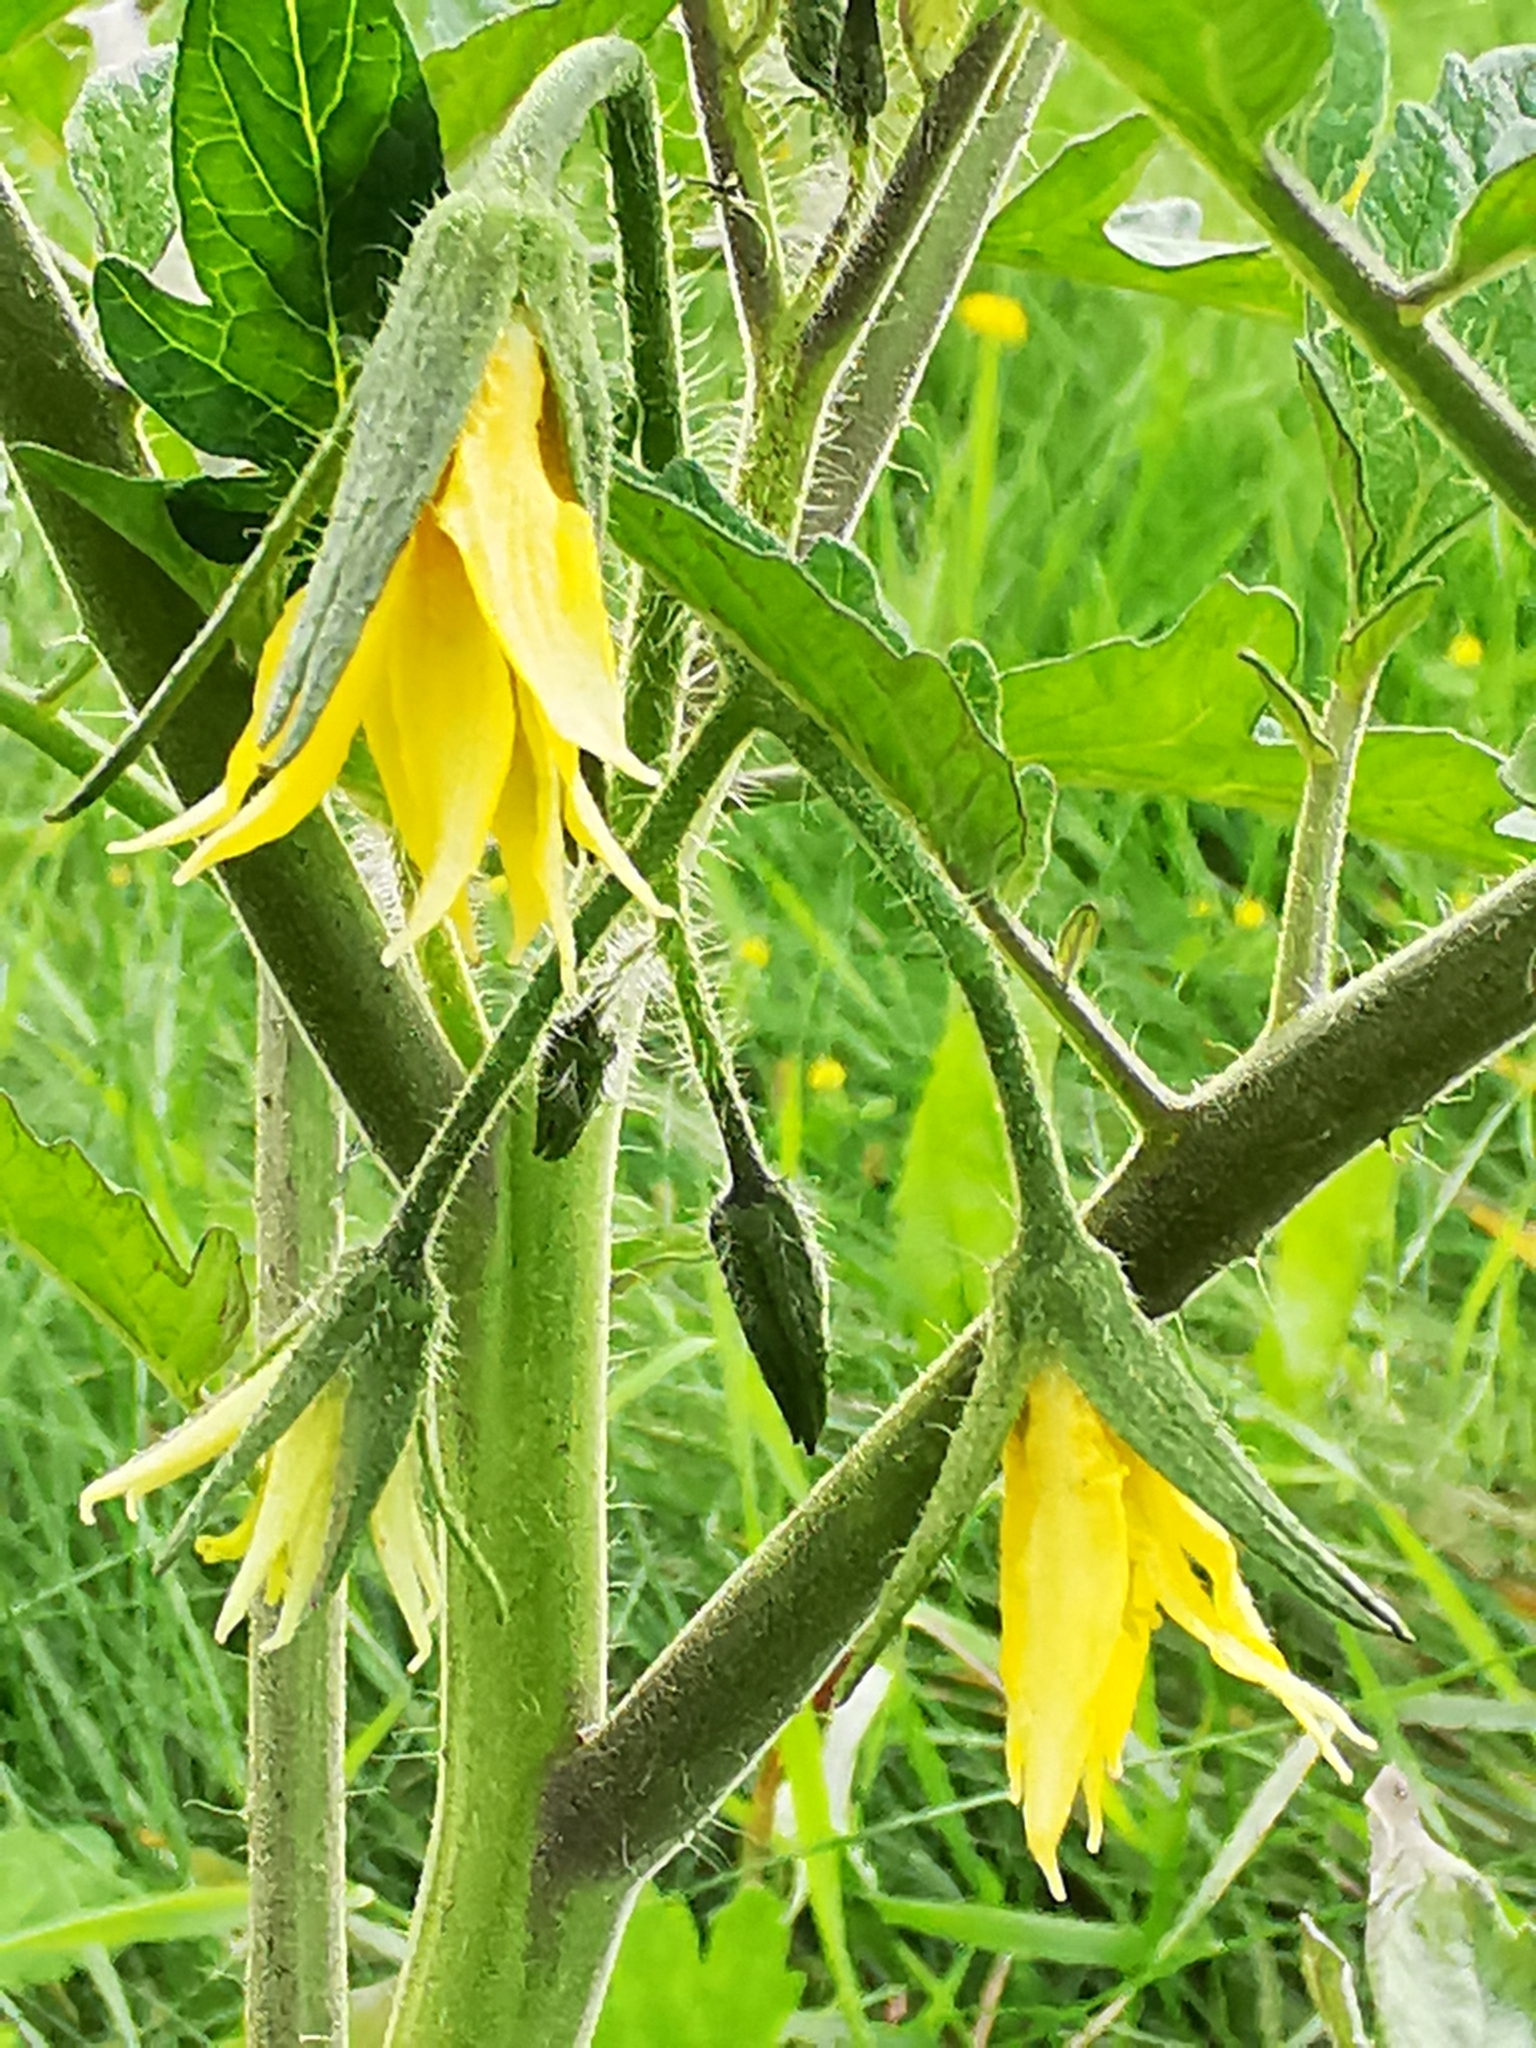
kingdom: Plantae
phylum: Tracheophyta
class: Magnoliopsida
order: Solanales
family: Solanaceae
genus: Solanum
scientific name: Solanum lycopersicum
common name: Garden tomato
